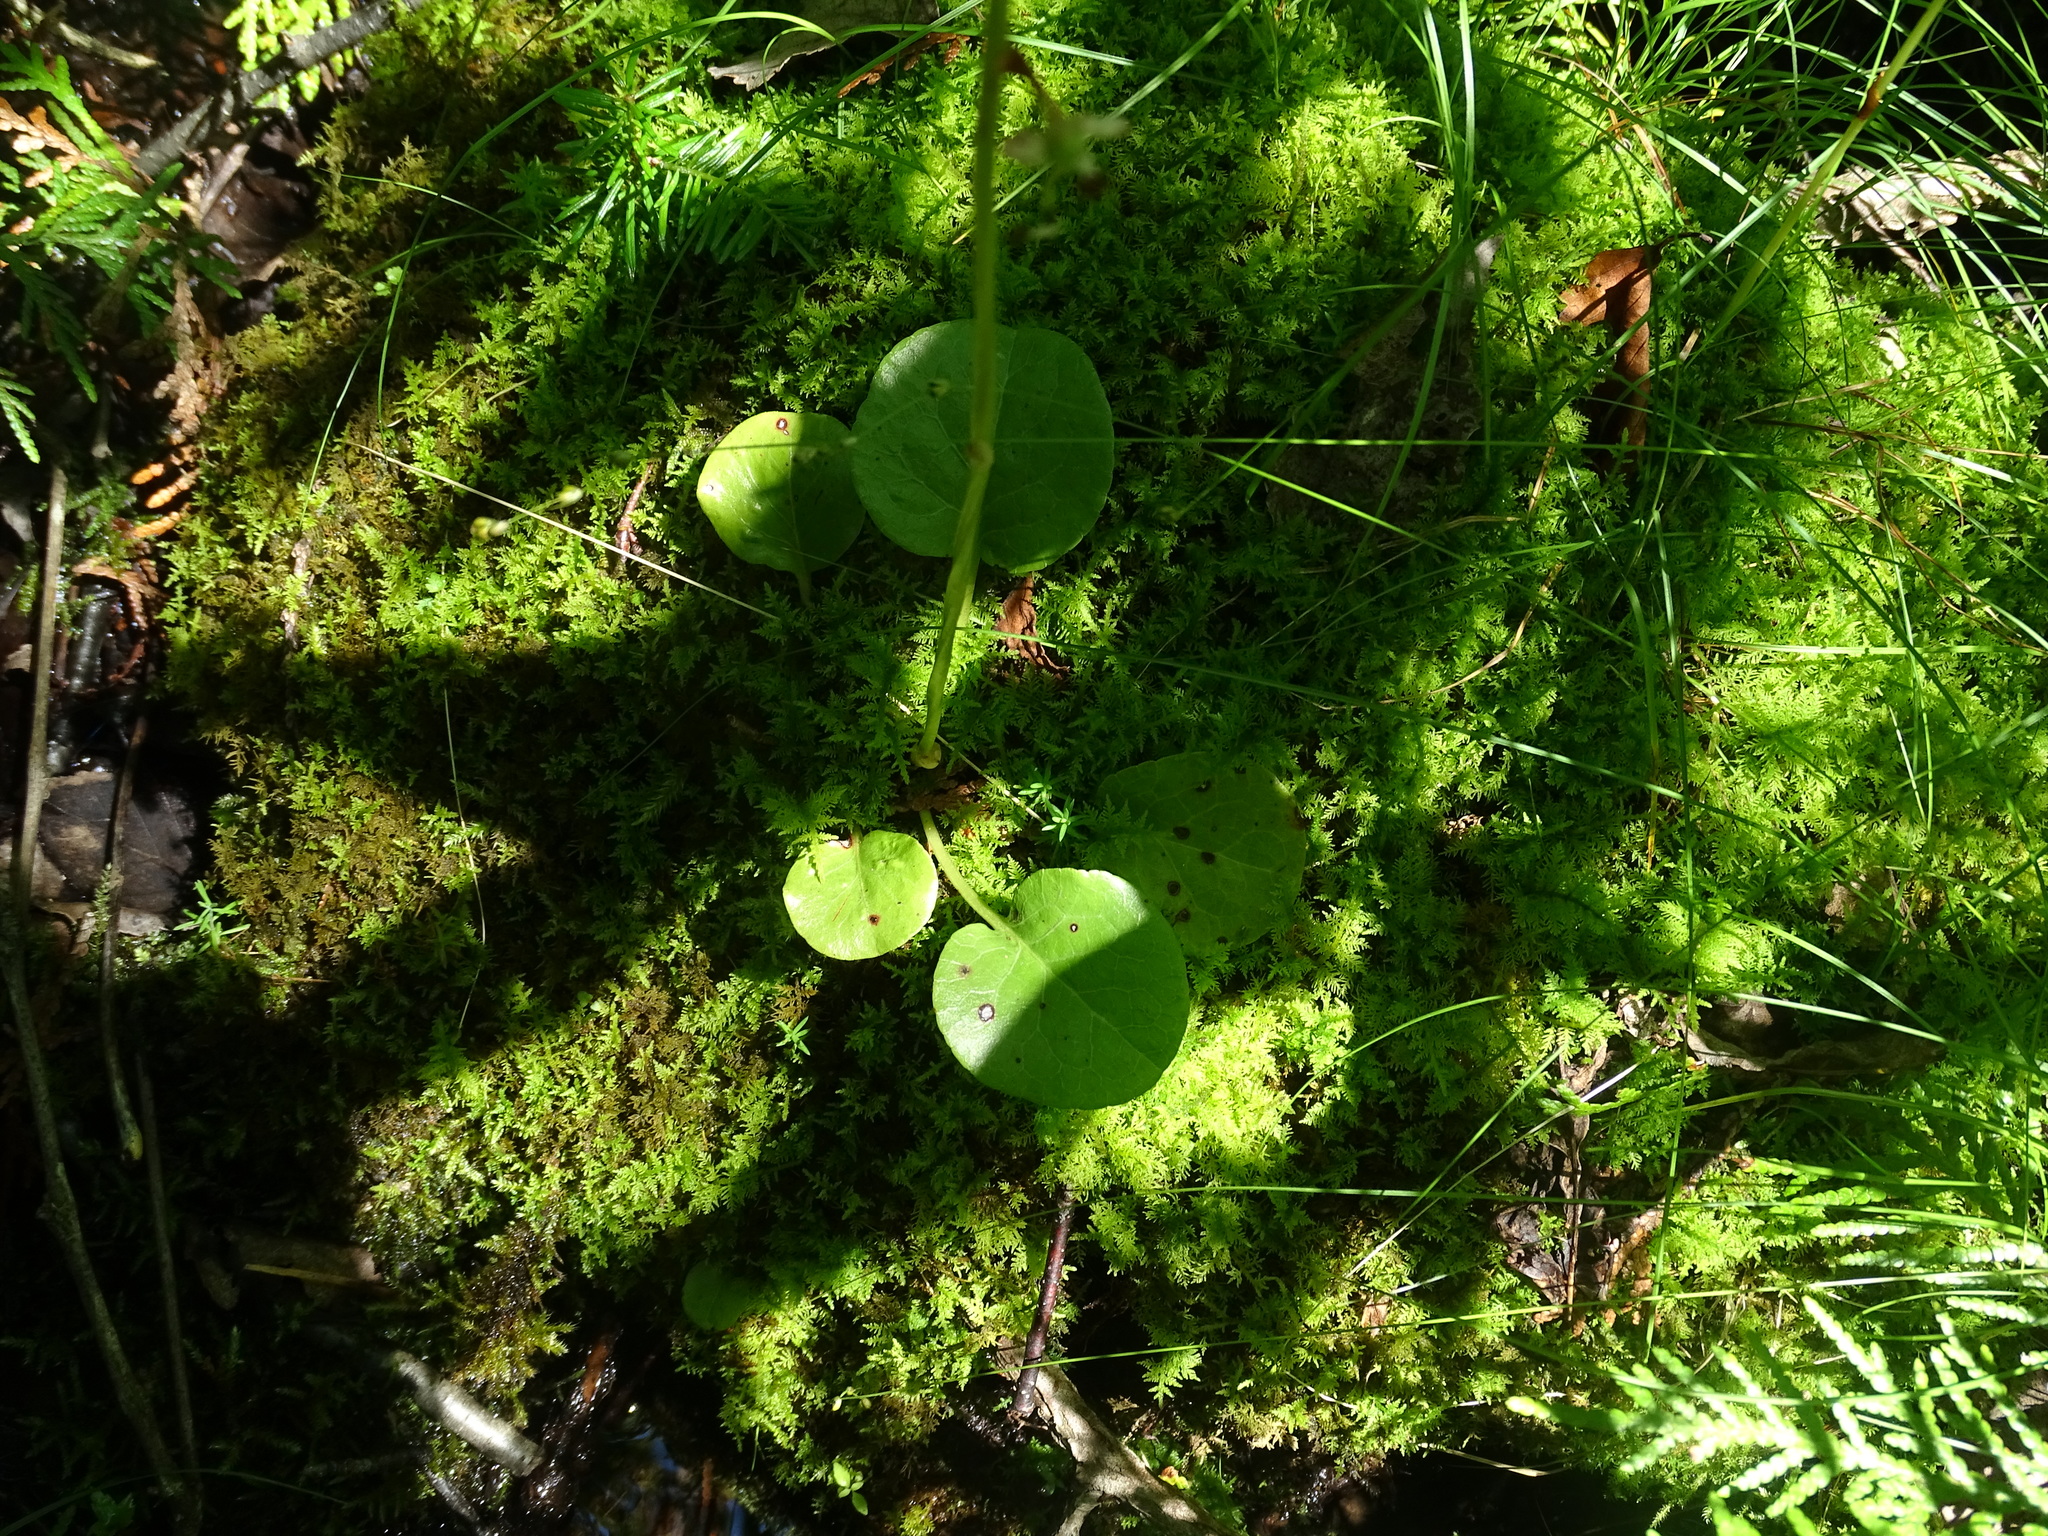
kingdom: Plantae
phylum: Tracheophyta
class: Magnoliopsida
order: Ericales
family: Ericaceae
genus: Pyrola
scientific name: Pyrola asarifolia
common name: Bog wintergreen
